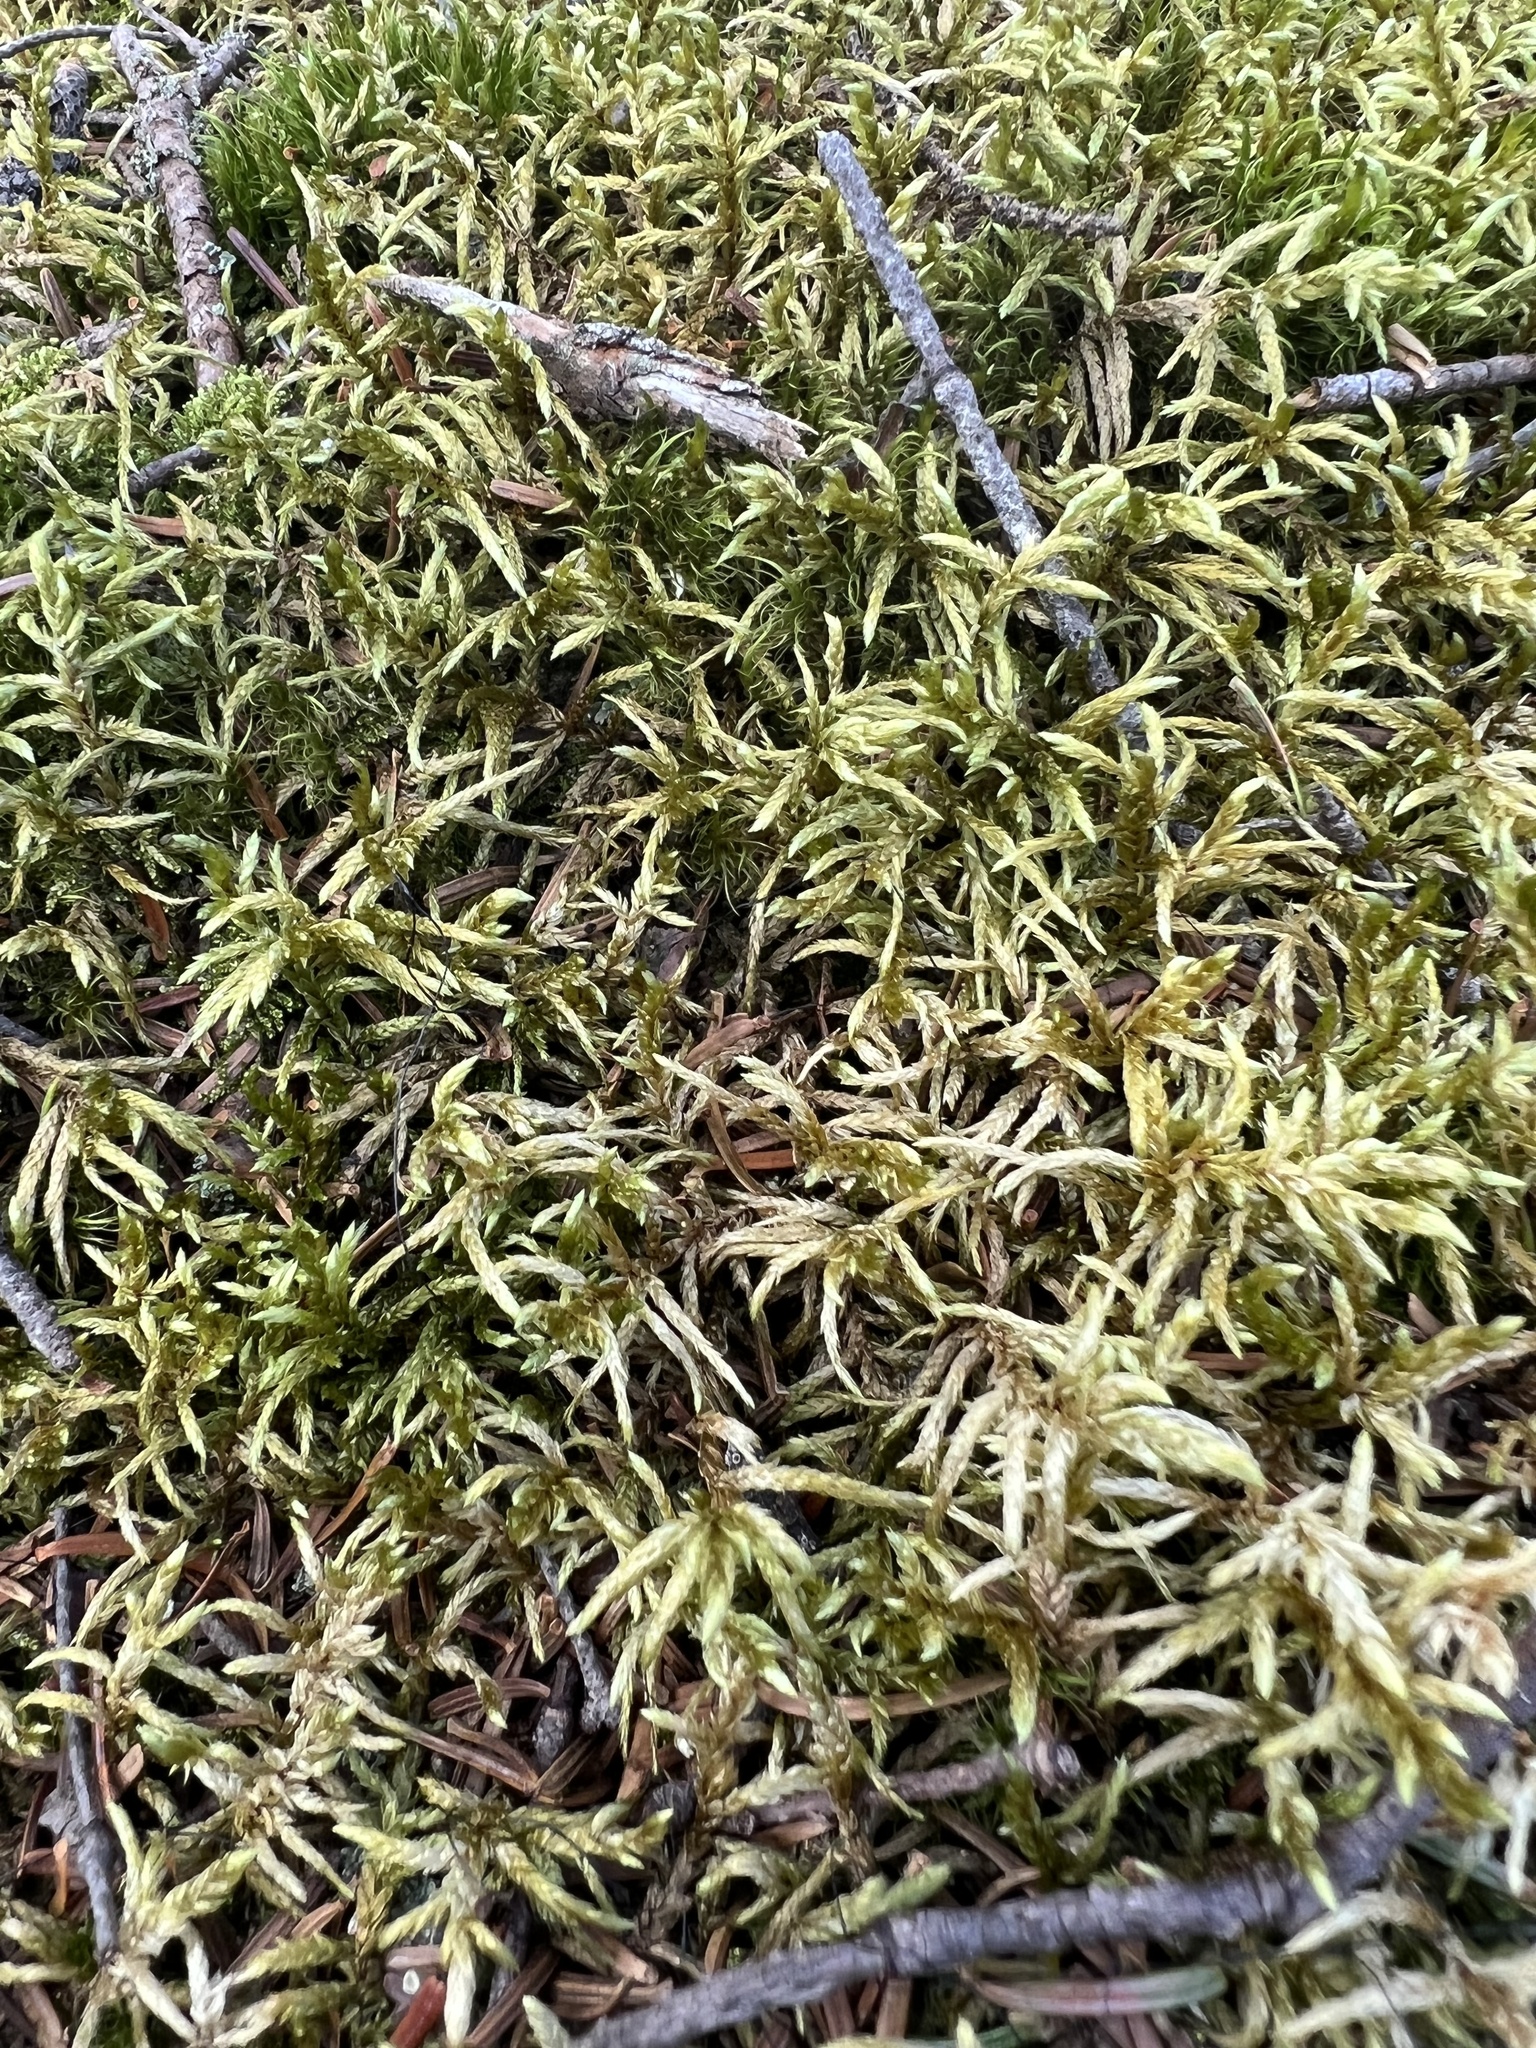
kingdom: Plantae
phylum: Bryophyta
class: Bryopsida
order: Hypnales
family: Hylocomiaceae
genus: Pleurozium
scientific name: Pleurozium schreberi
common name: Red-stemmed feather moss
